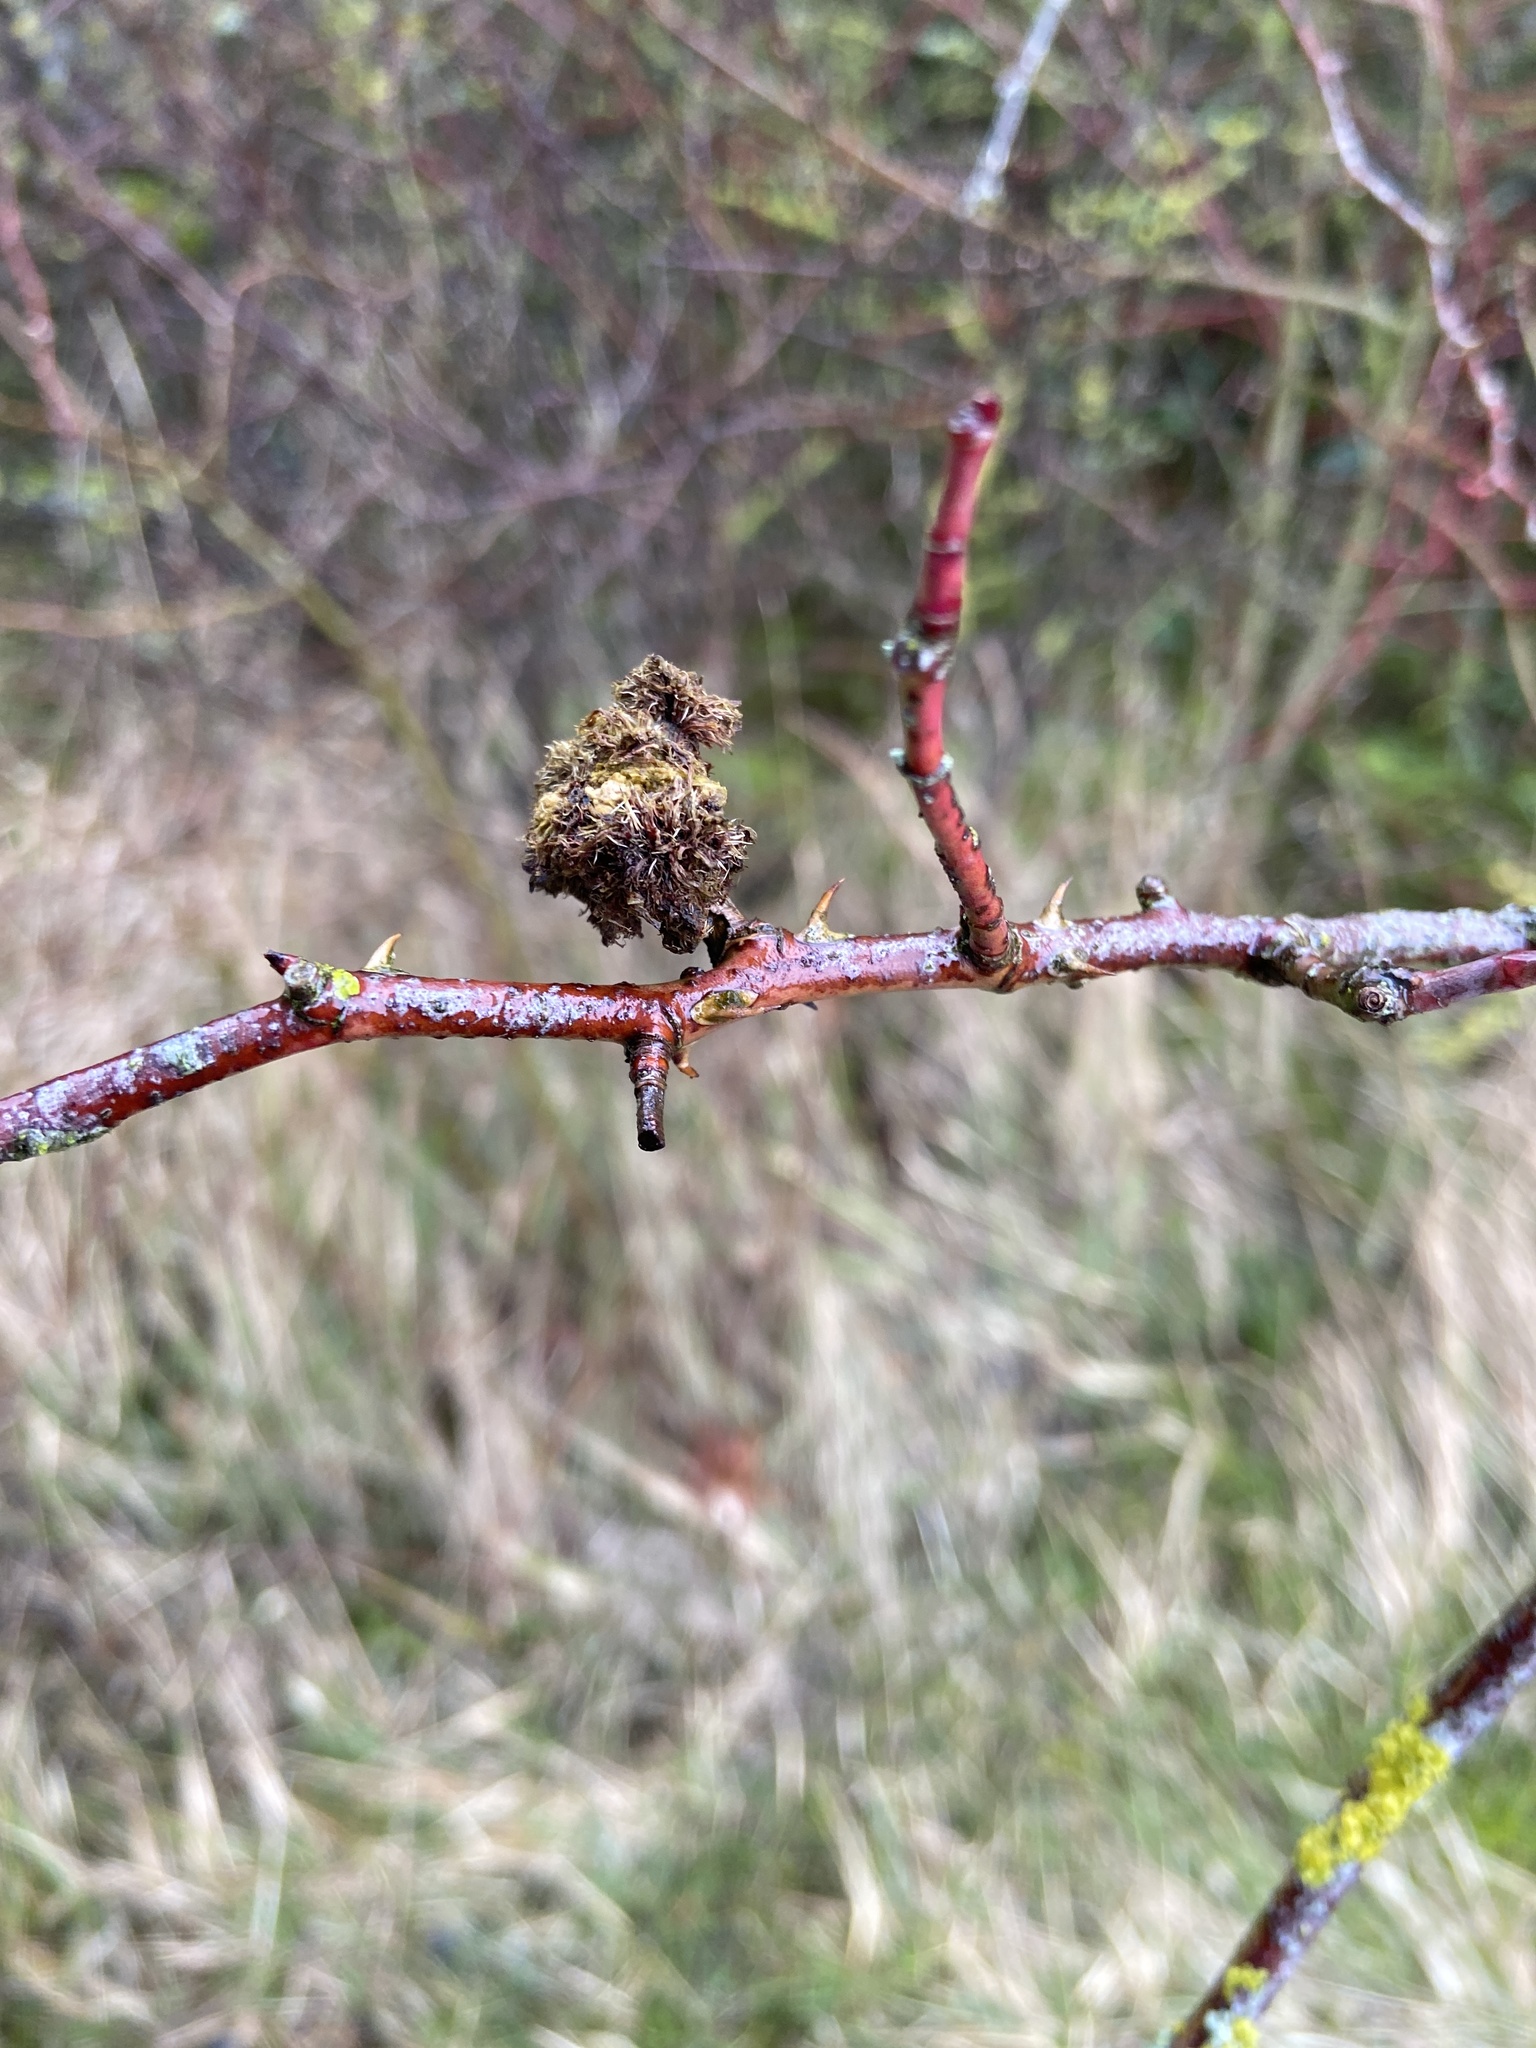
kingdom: Animalia
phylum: Arthropoda
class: Insecta
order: Hymenoptera
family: Cynipidae
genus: Diplolepis
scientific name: Diplolepis rosae
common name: Bedeguar gall
